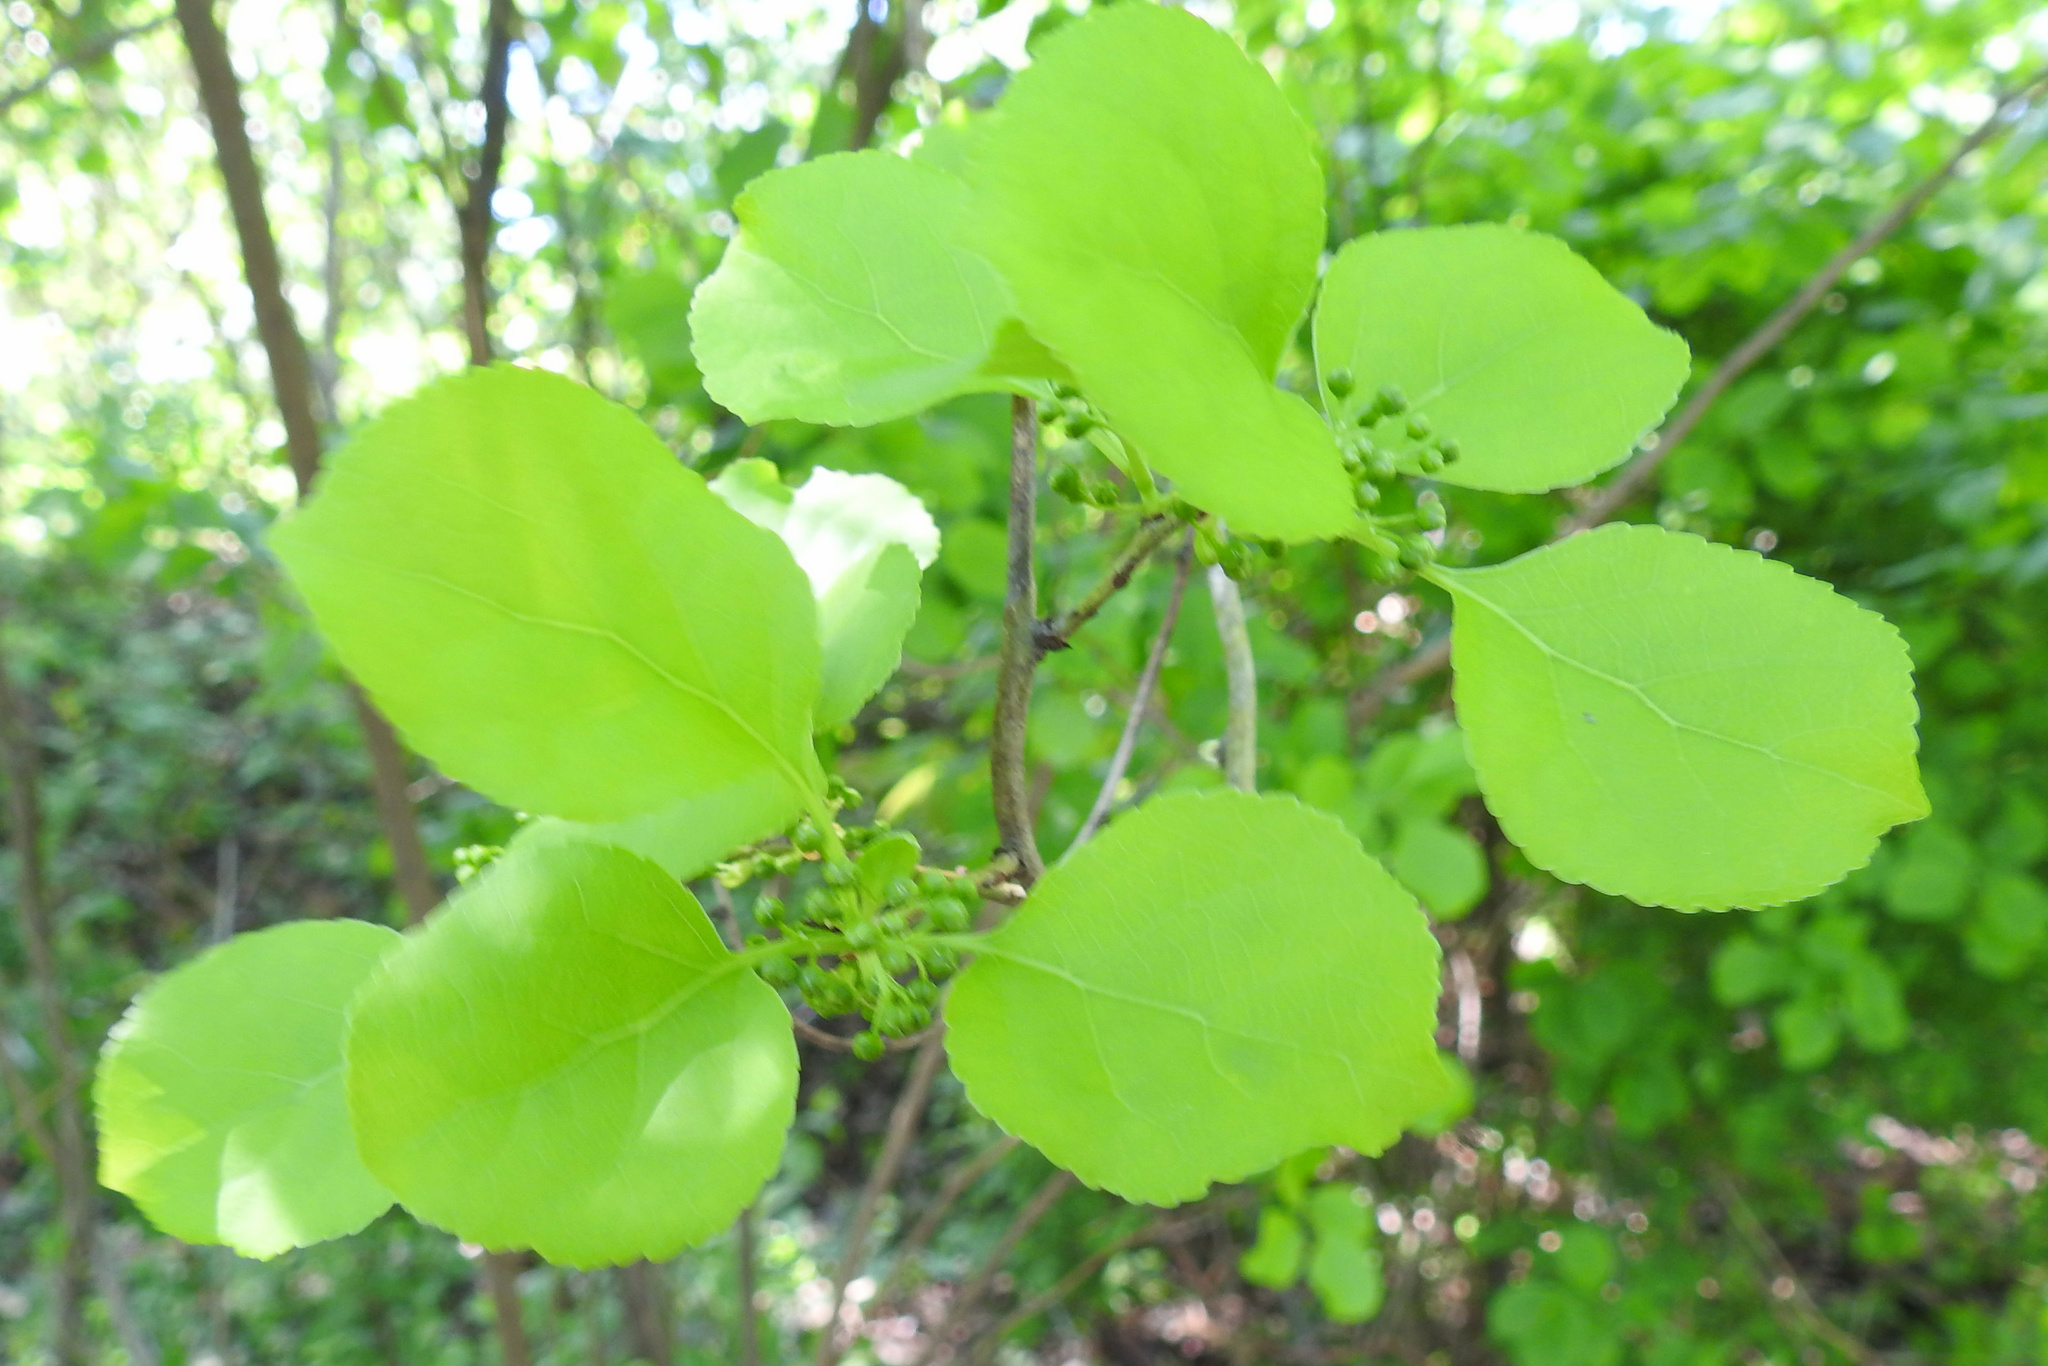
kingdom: Plantae
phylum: Tracheophyta
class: Magnoliopsida
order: Celastrales
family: Celastraceae
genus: Celastrus
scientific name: Celastrus orbiculatus
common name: Oriental bittersweet
